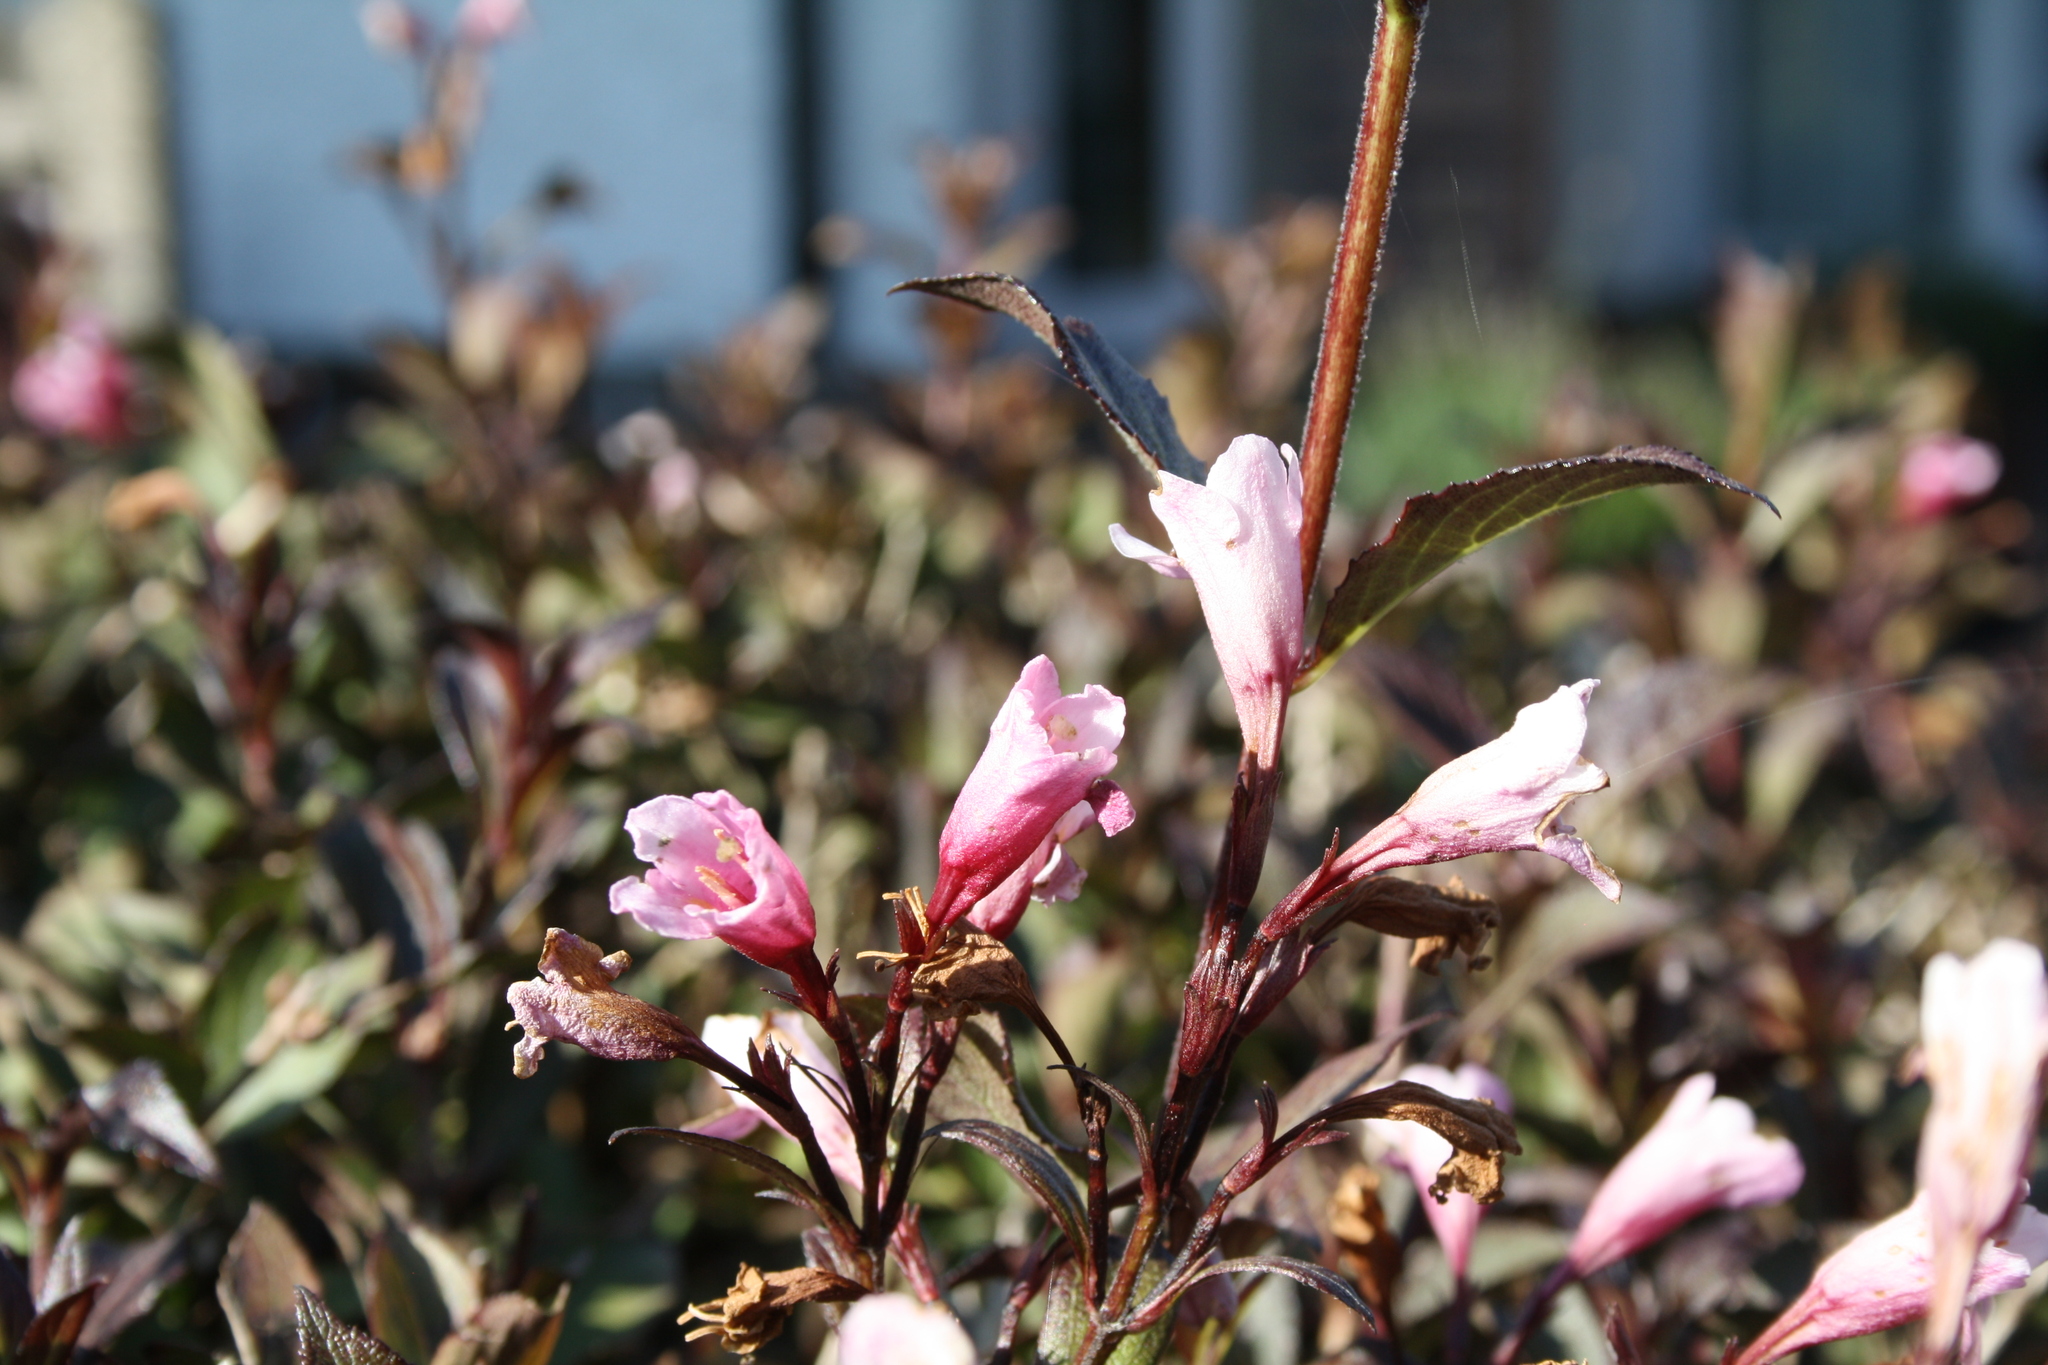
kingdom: Plantae
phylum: Tracheophyta
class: Magnoliopsida
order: Dipsacales
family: Caprifoliaceae
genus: Weigela
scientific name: Weigela florida
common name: Weigelia
